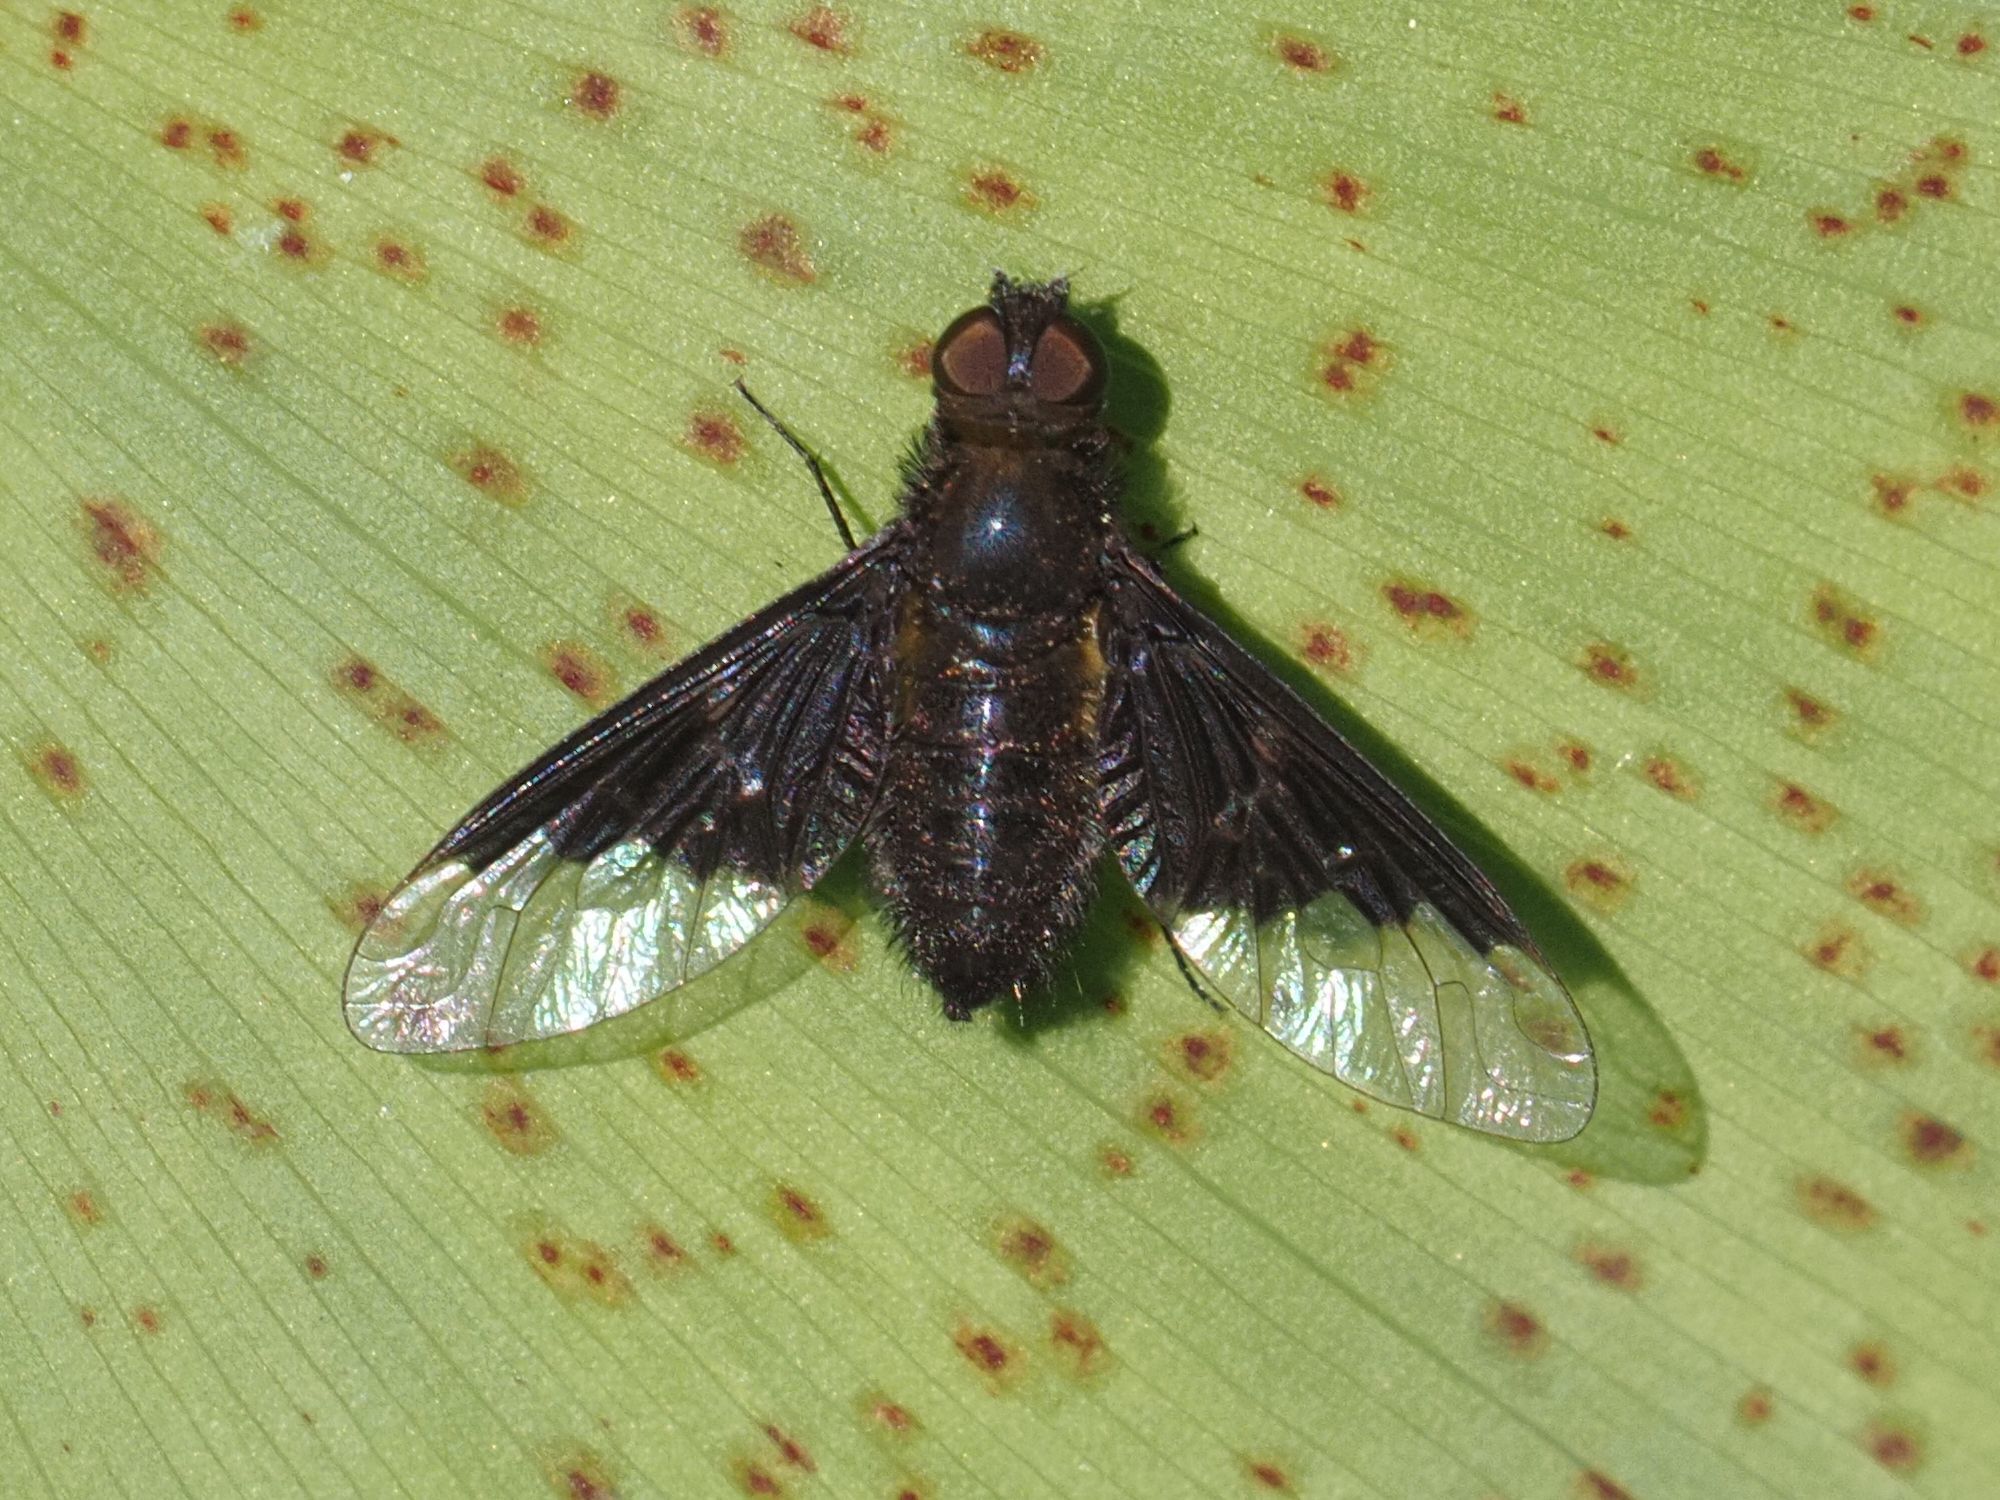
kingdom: Animalia
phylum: Arthropoda
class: Insecta
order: Diptera
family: Bombyliidae
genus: Hemipenthes
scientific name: Hemipenthes morio
